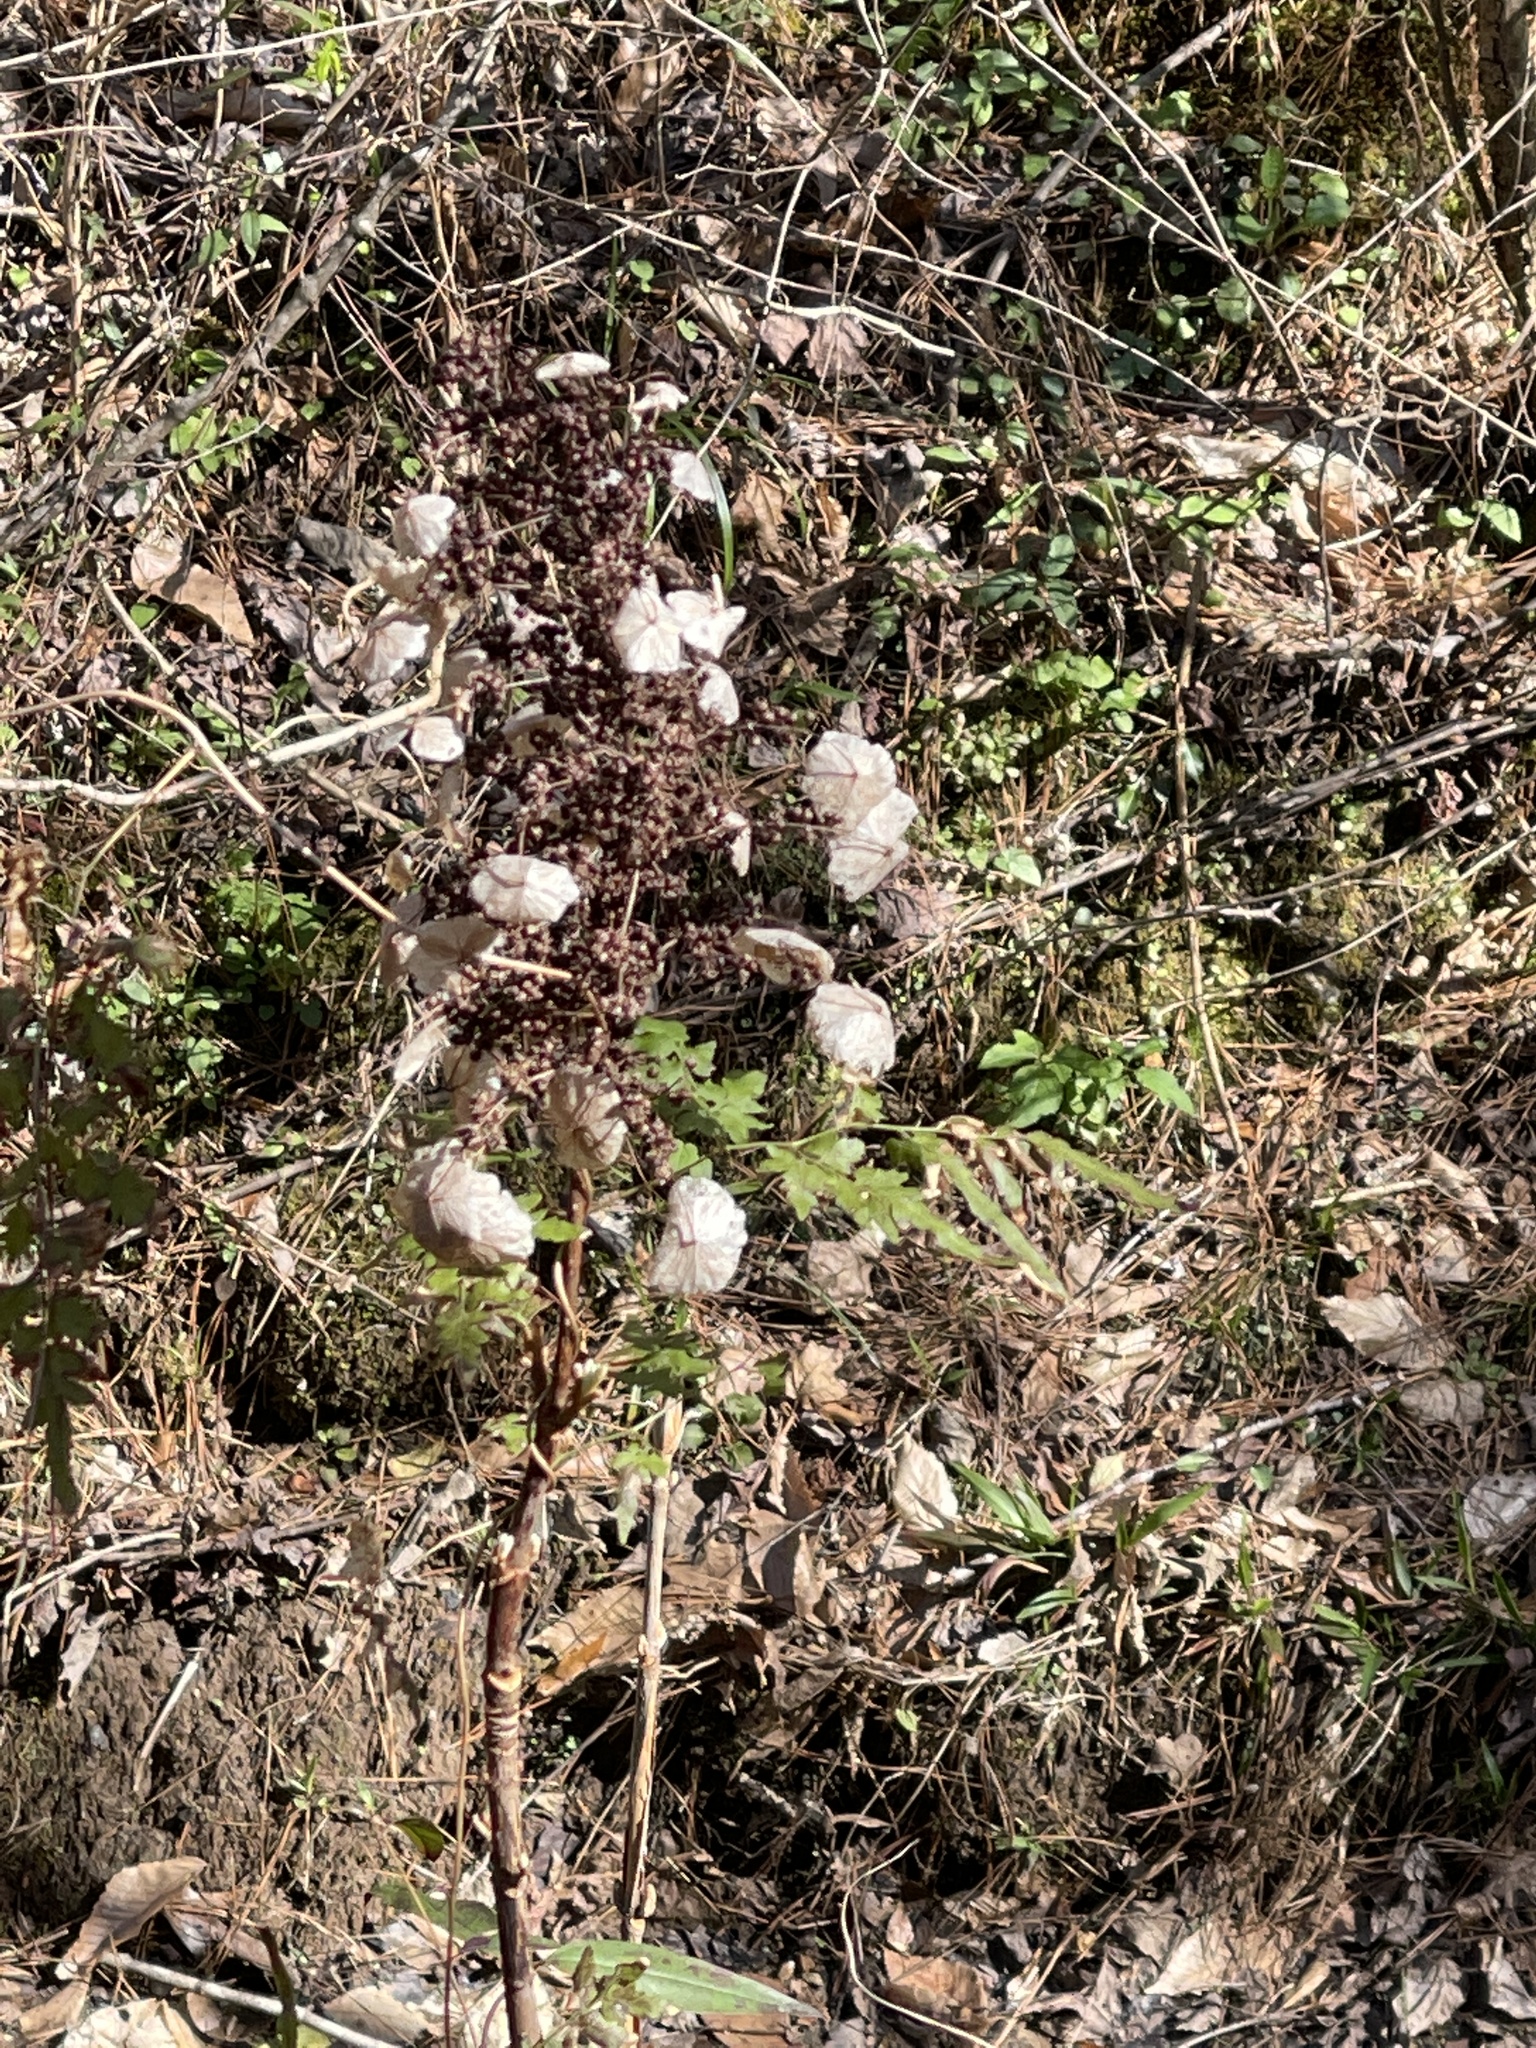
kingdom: Plantae
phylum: Tracheophyta
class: Magnoliopsida
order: Cornales
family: Hydrangeaceae
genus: Hydrangea
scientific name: Hydrangea quercifolia
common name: Oak-leaf hydrangea
